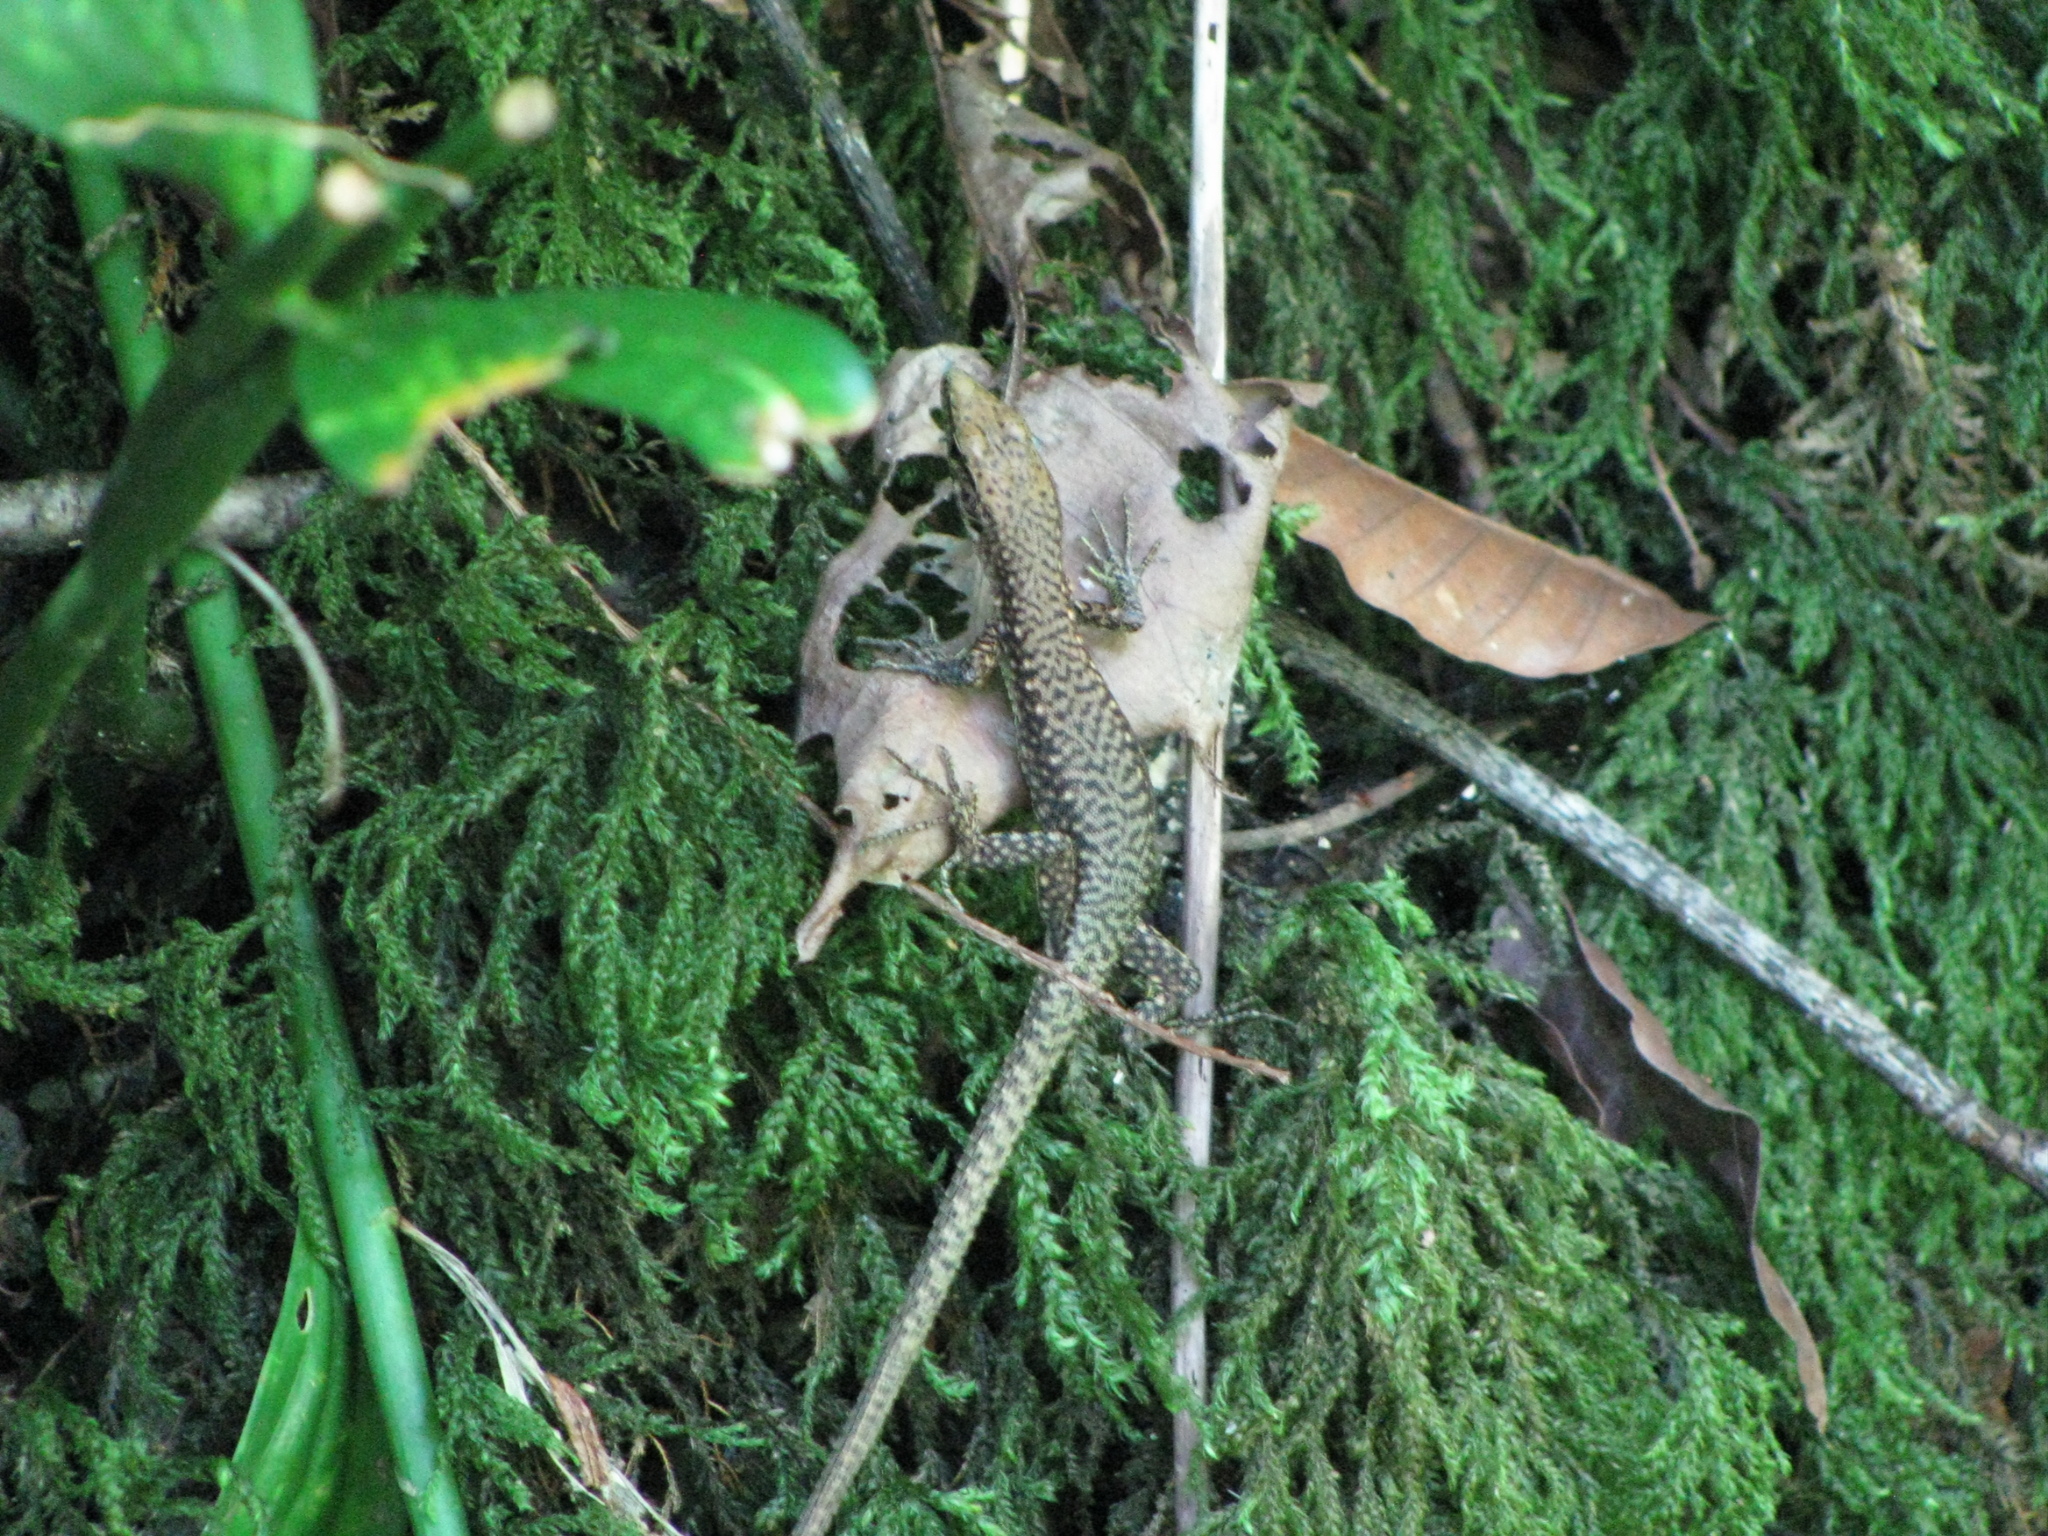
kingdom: Animalia
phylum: Chordata
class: Squamata
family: Lacertidae
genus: Darevskia
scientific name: Darevskia brauneri
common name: Brauner's rock lizard
